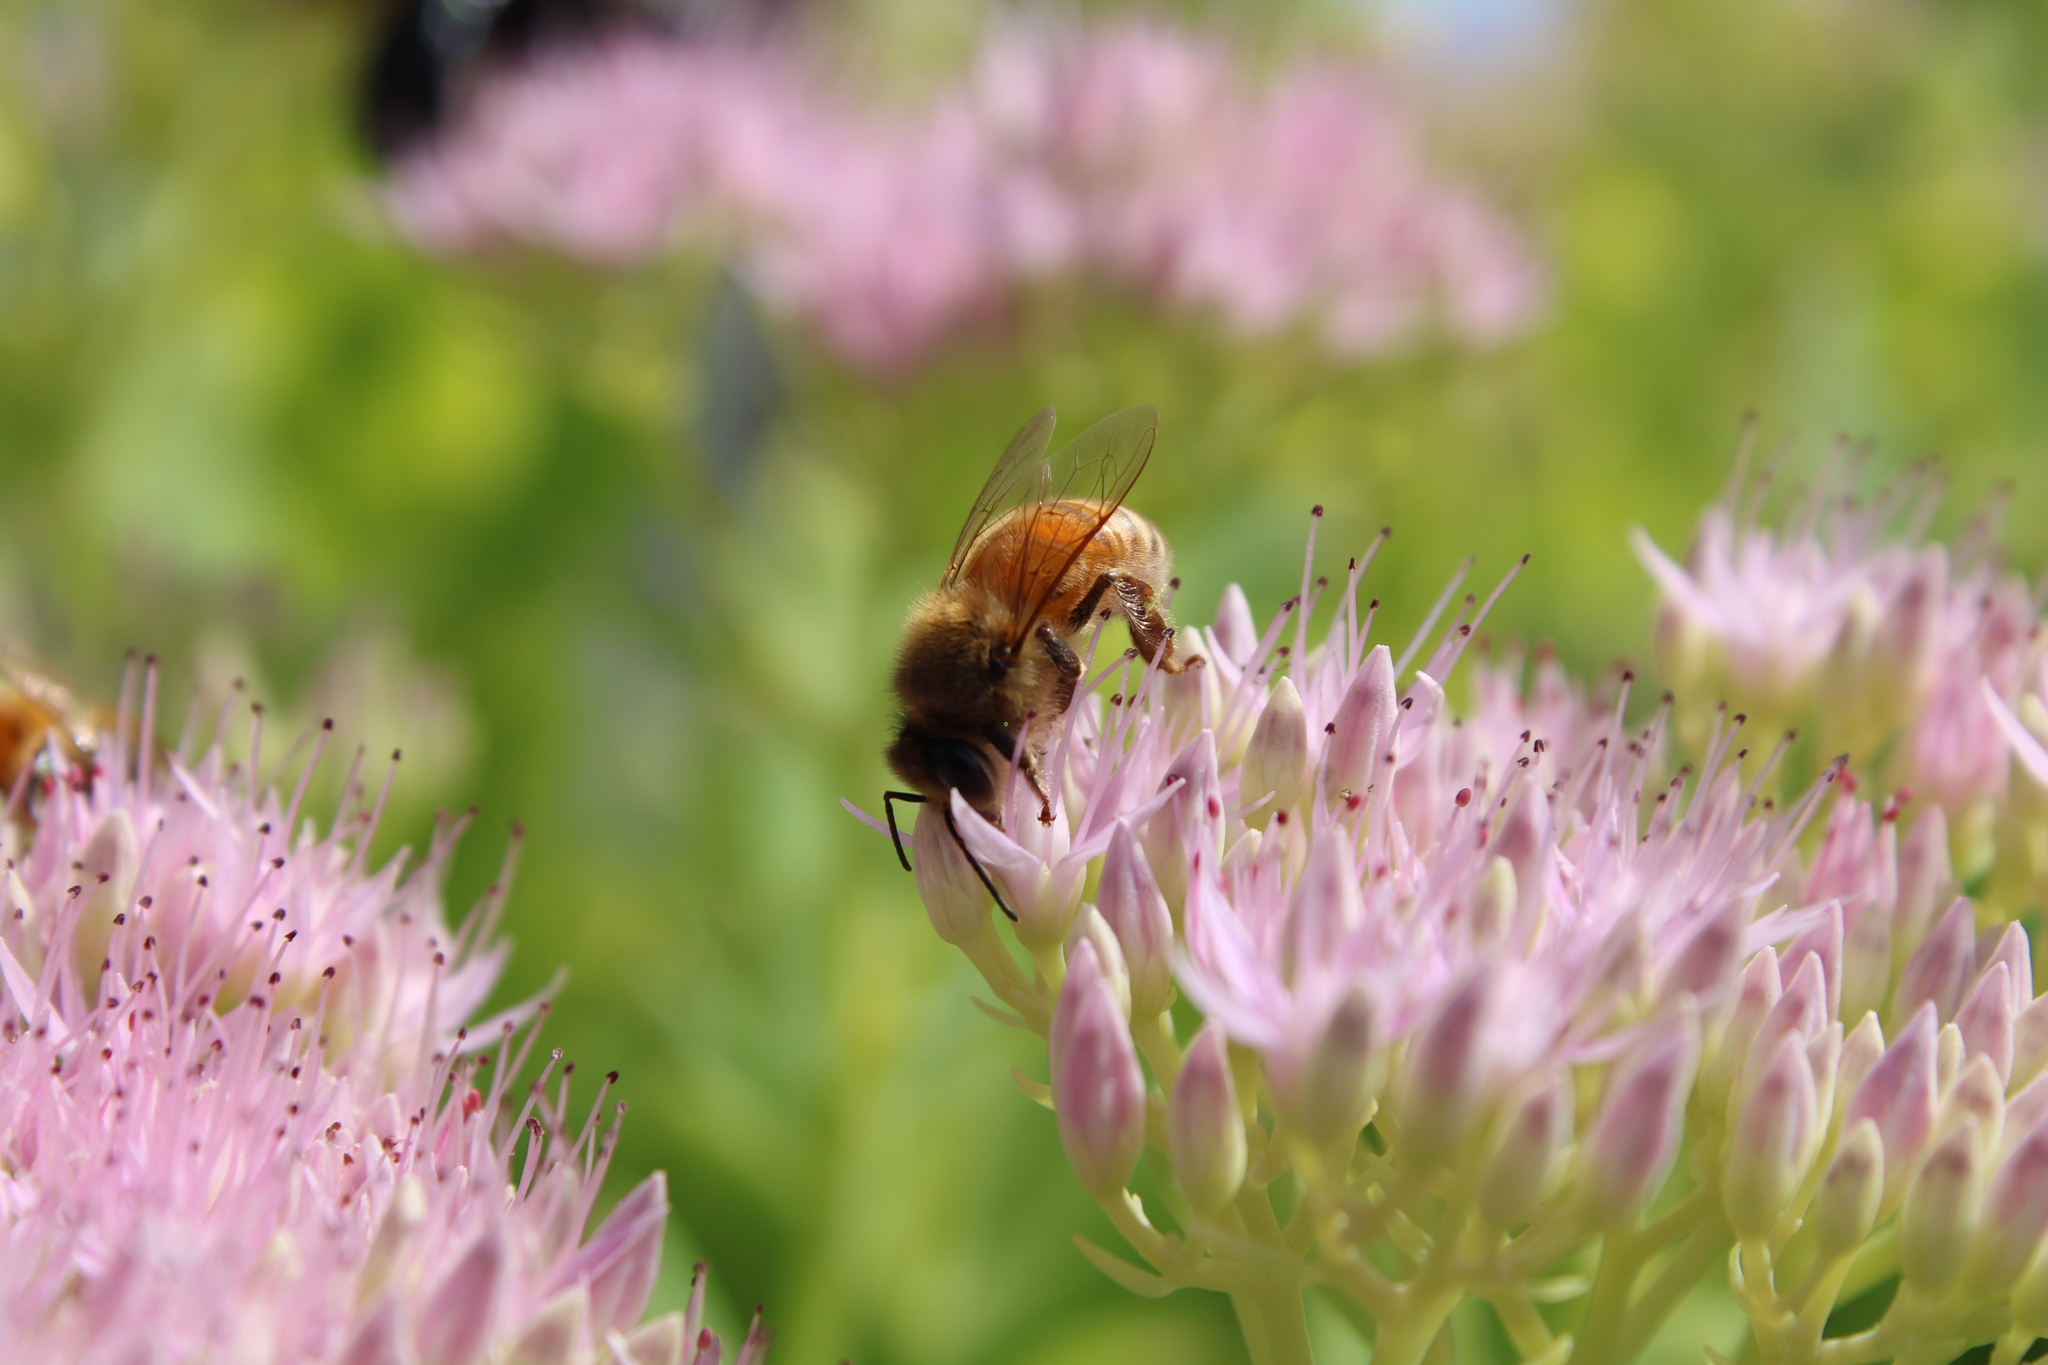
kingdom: Animalia
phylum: Arthropoda
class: Insecta
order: Hymenoptera
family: Apidae
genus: Apis
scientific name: Apis mellifera
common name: Honey bee
